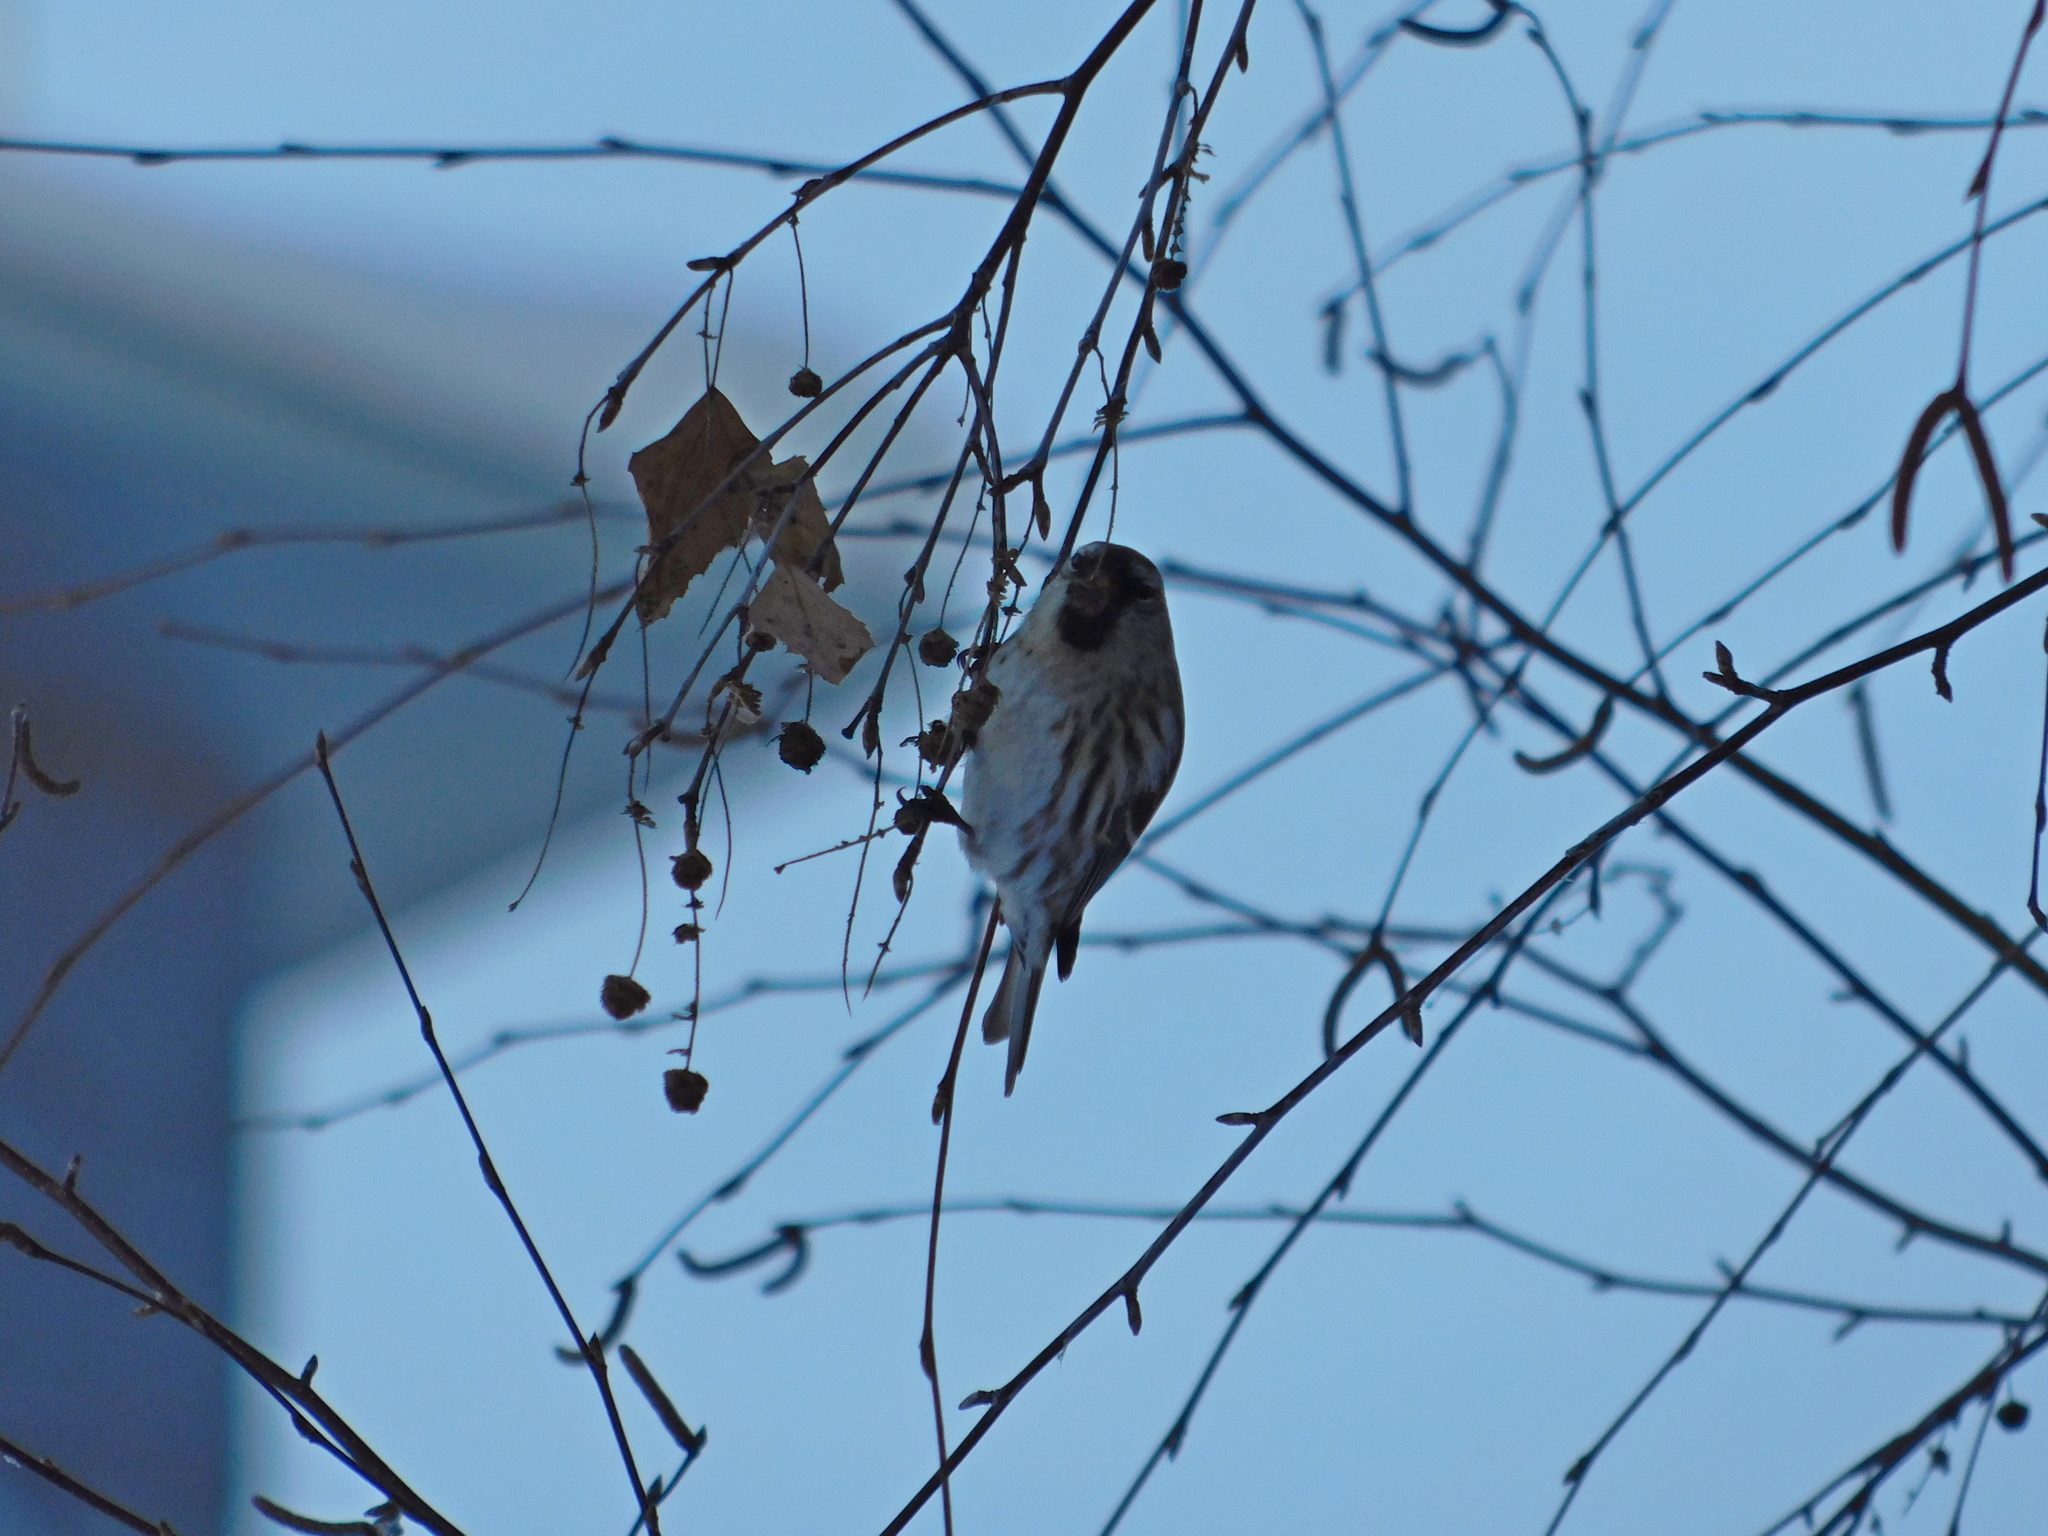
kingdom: Animalia
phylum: Chordata
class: Aves
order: Passeriformes
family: Fringillidae
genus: Acanthis
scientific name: Acanthis flammea
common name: Common redpoll
